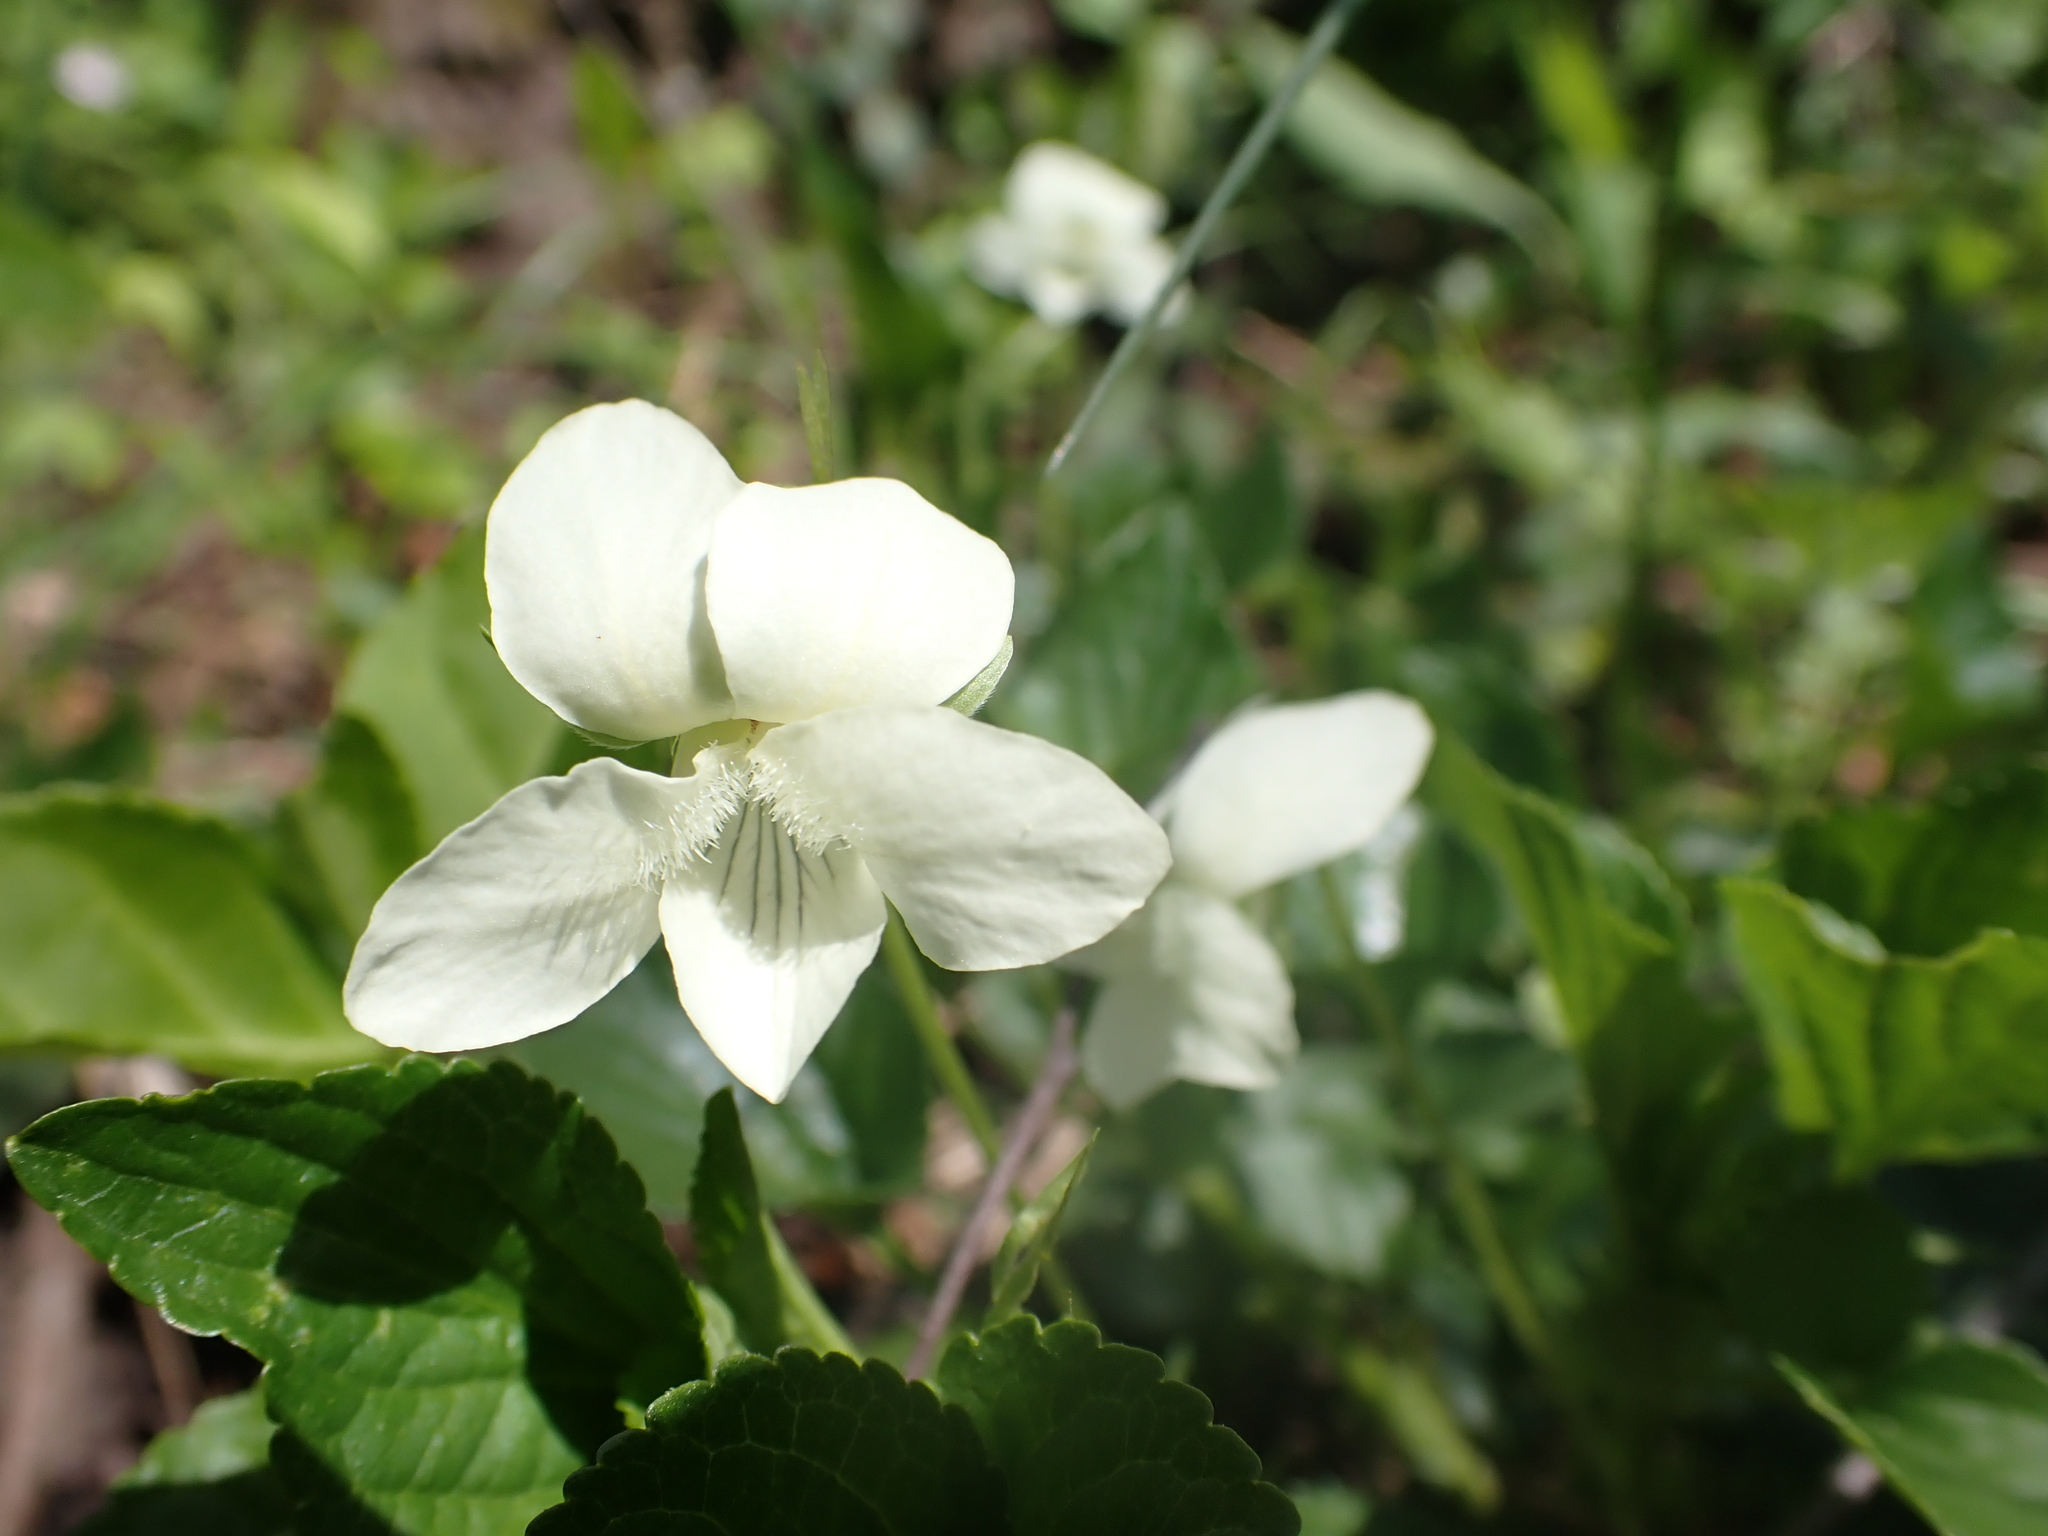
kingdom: Plantae
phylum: Tracheophyta
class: Magnoliopsida
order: Malpighiales
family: Violaceae
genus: Viola
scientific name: Viola striata
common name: Cream violet
